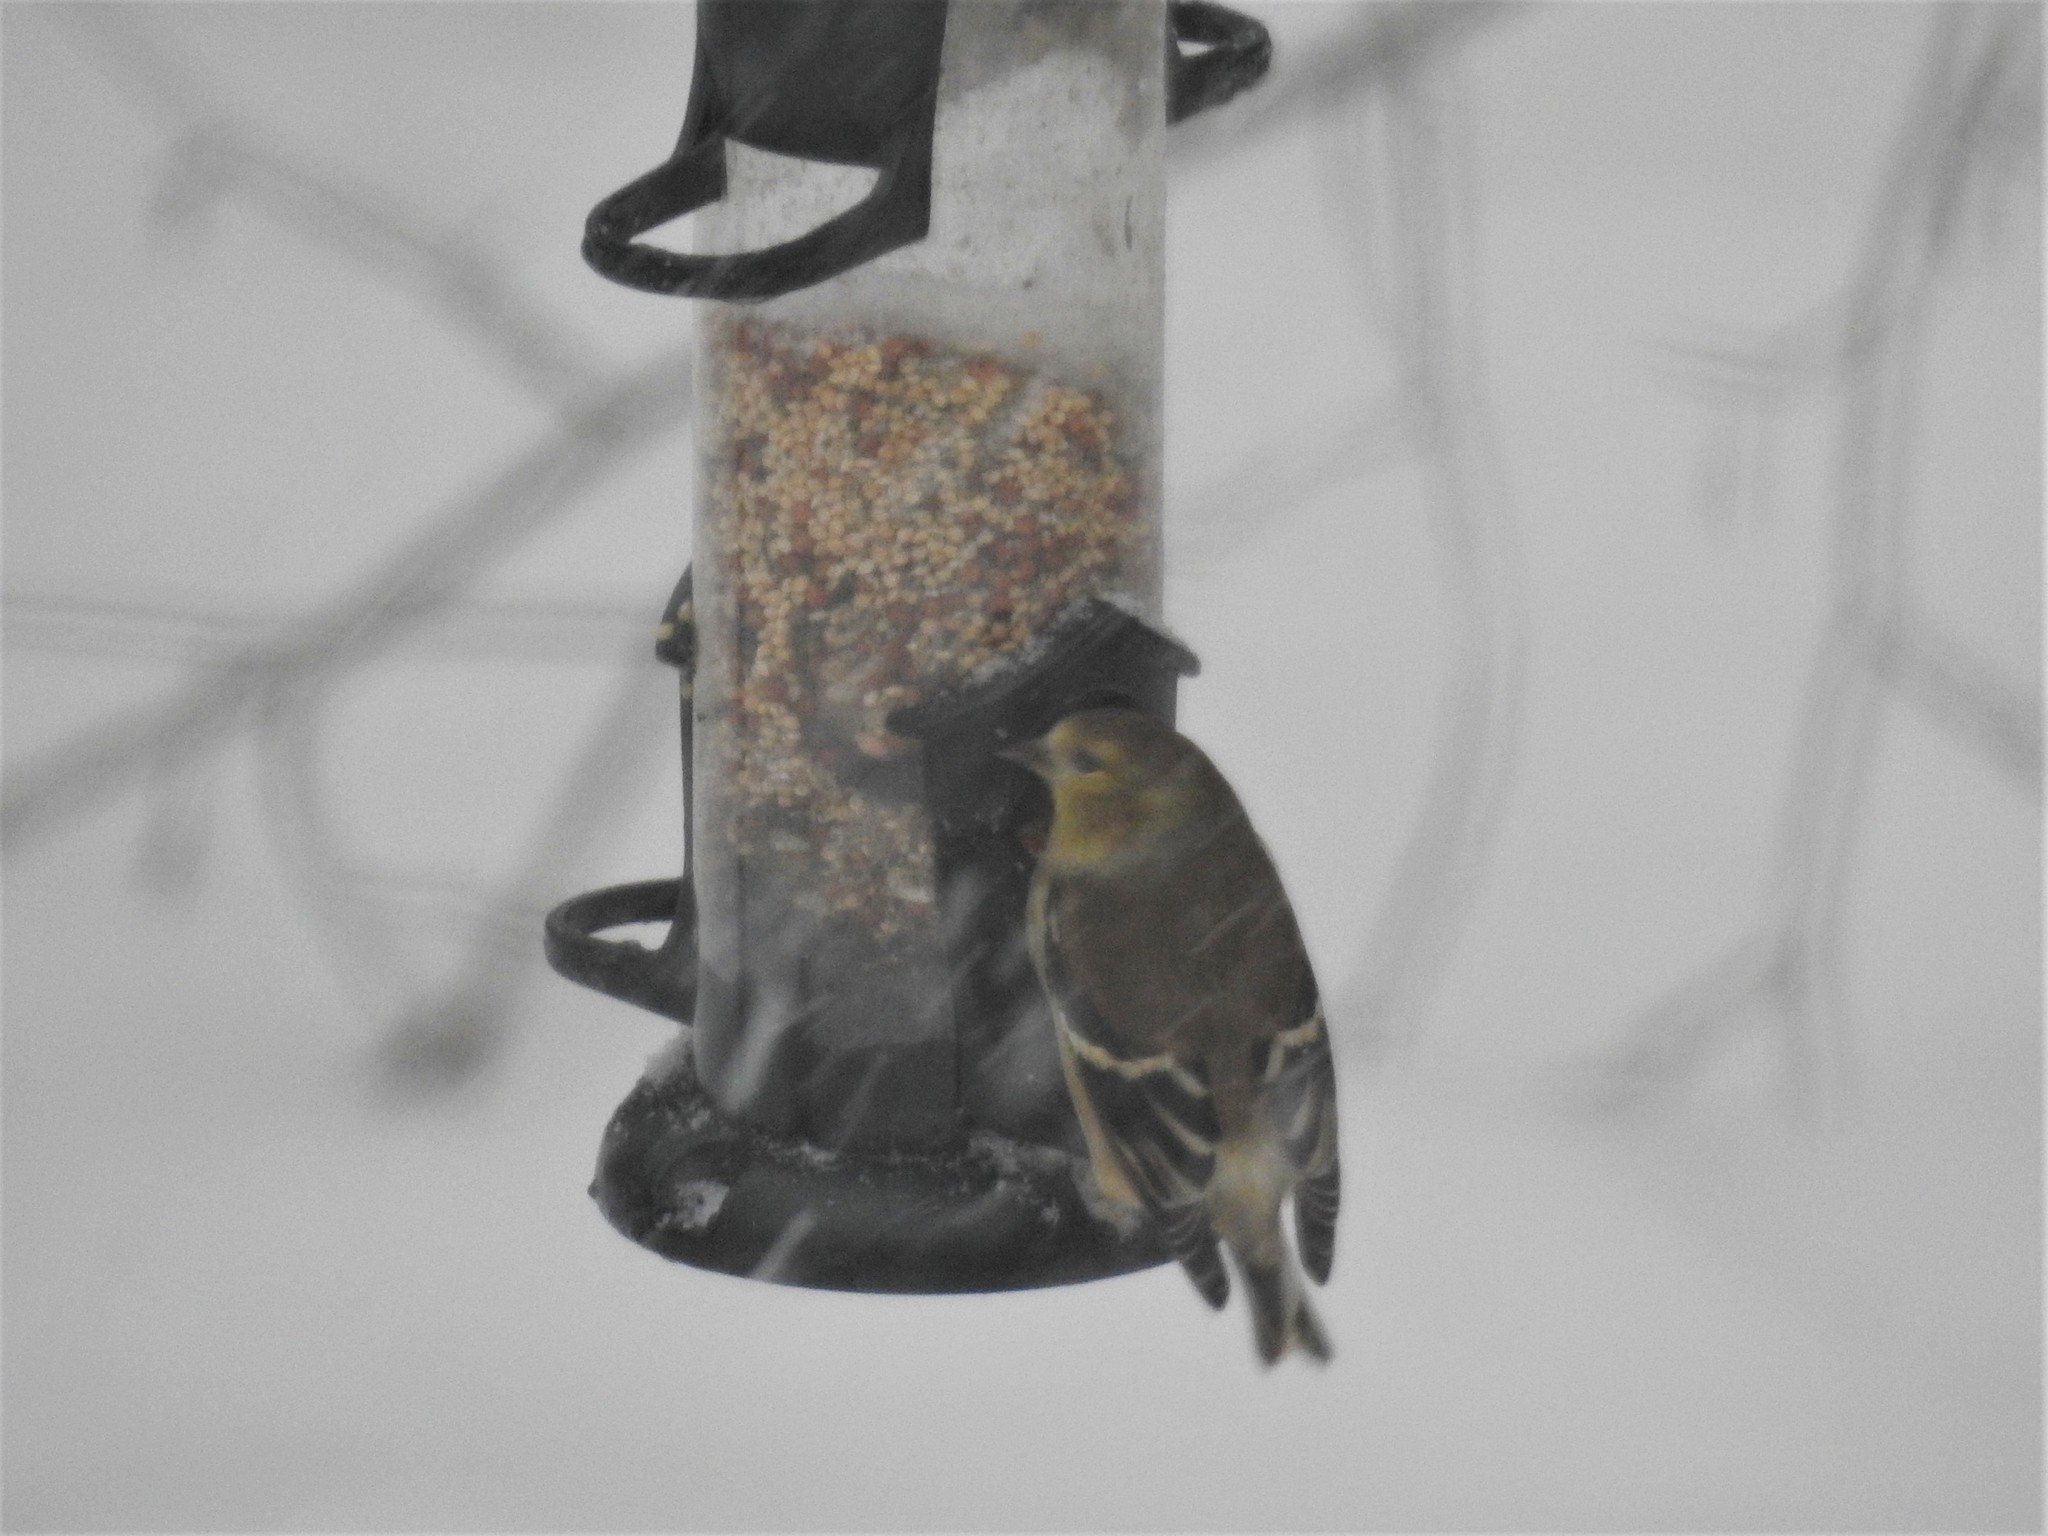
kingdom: Animalia
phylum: Chordata
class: Aves
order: Passeriformes
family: Fringillidae
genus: Spinus
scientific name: Spinus tristis
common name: American goldfinch
